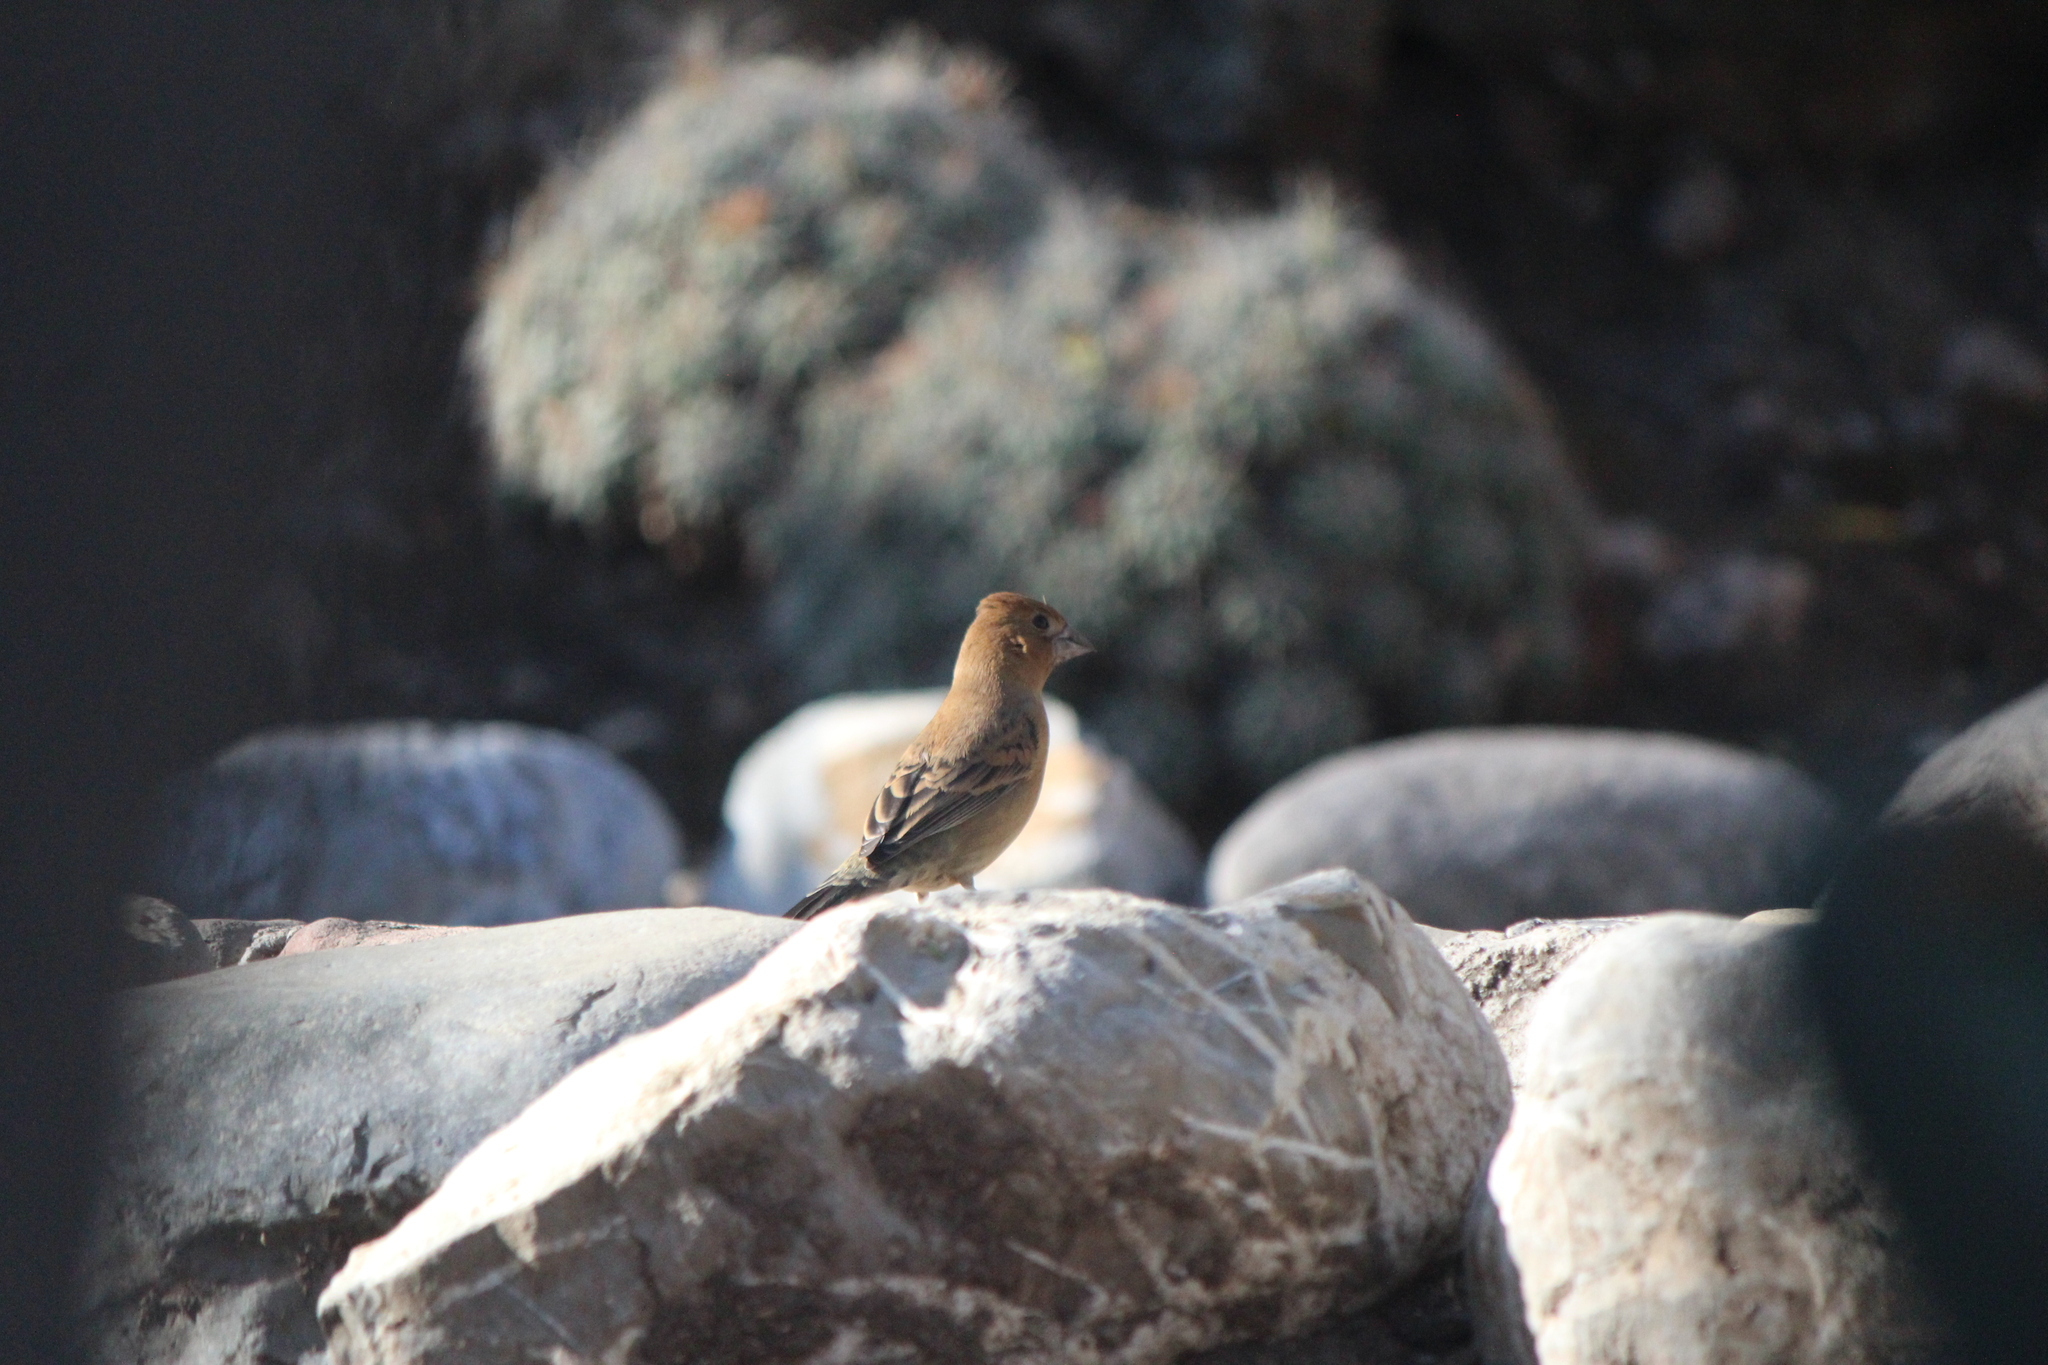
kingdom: Animalia
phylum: Chordata
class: Aves
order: Passeriformes
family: Cardinalidae
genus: Passerina
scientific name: Passerina caerulea
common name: Blue grosbeak
